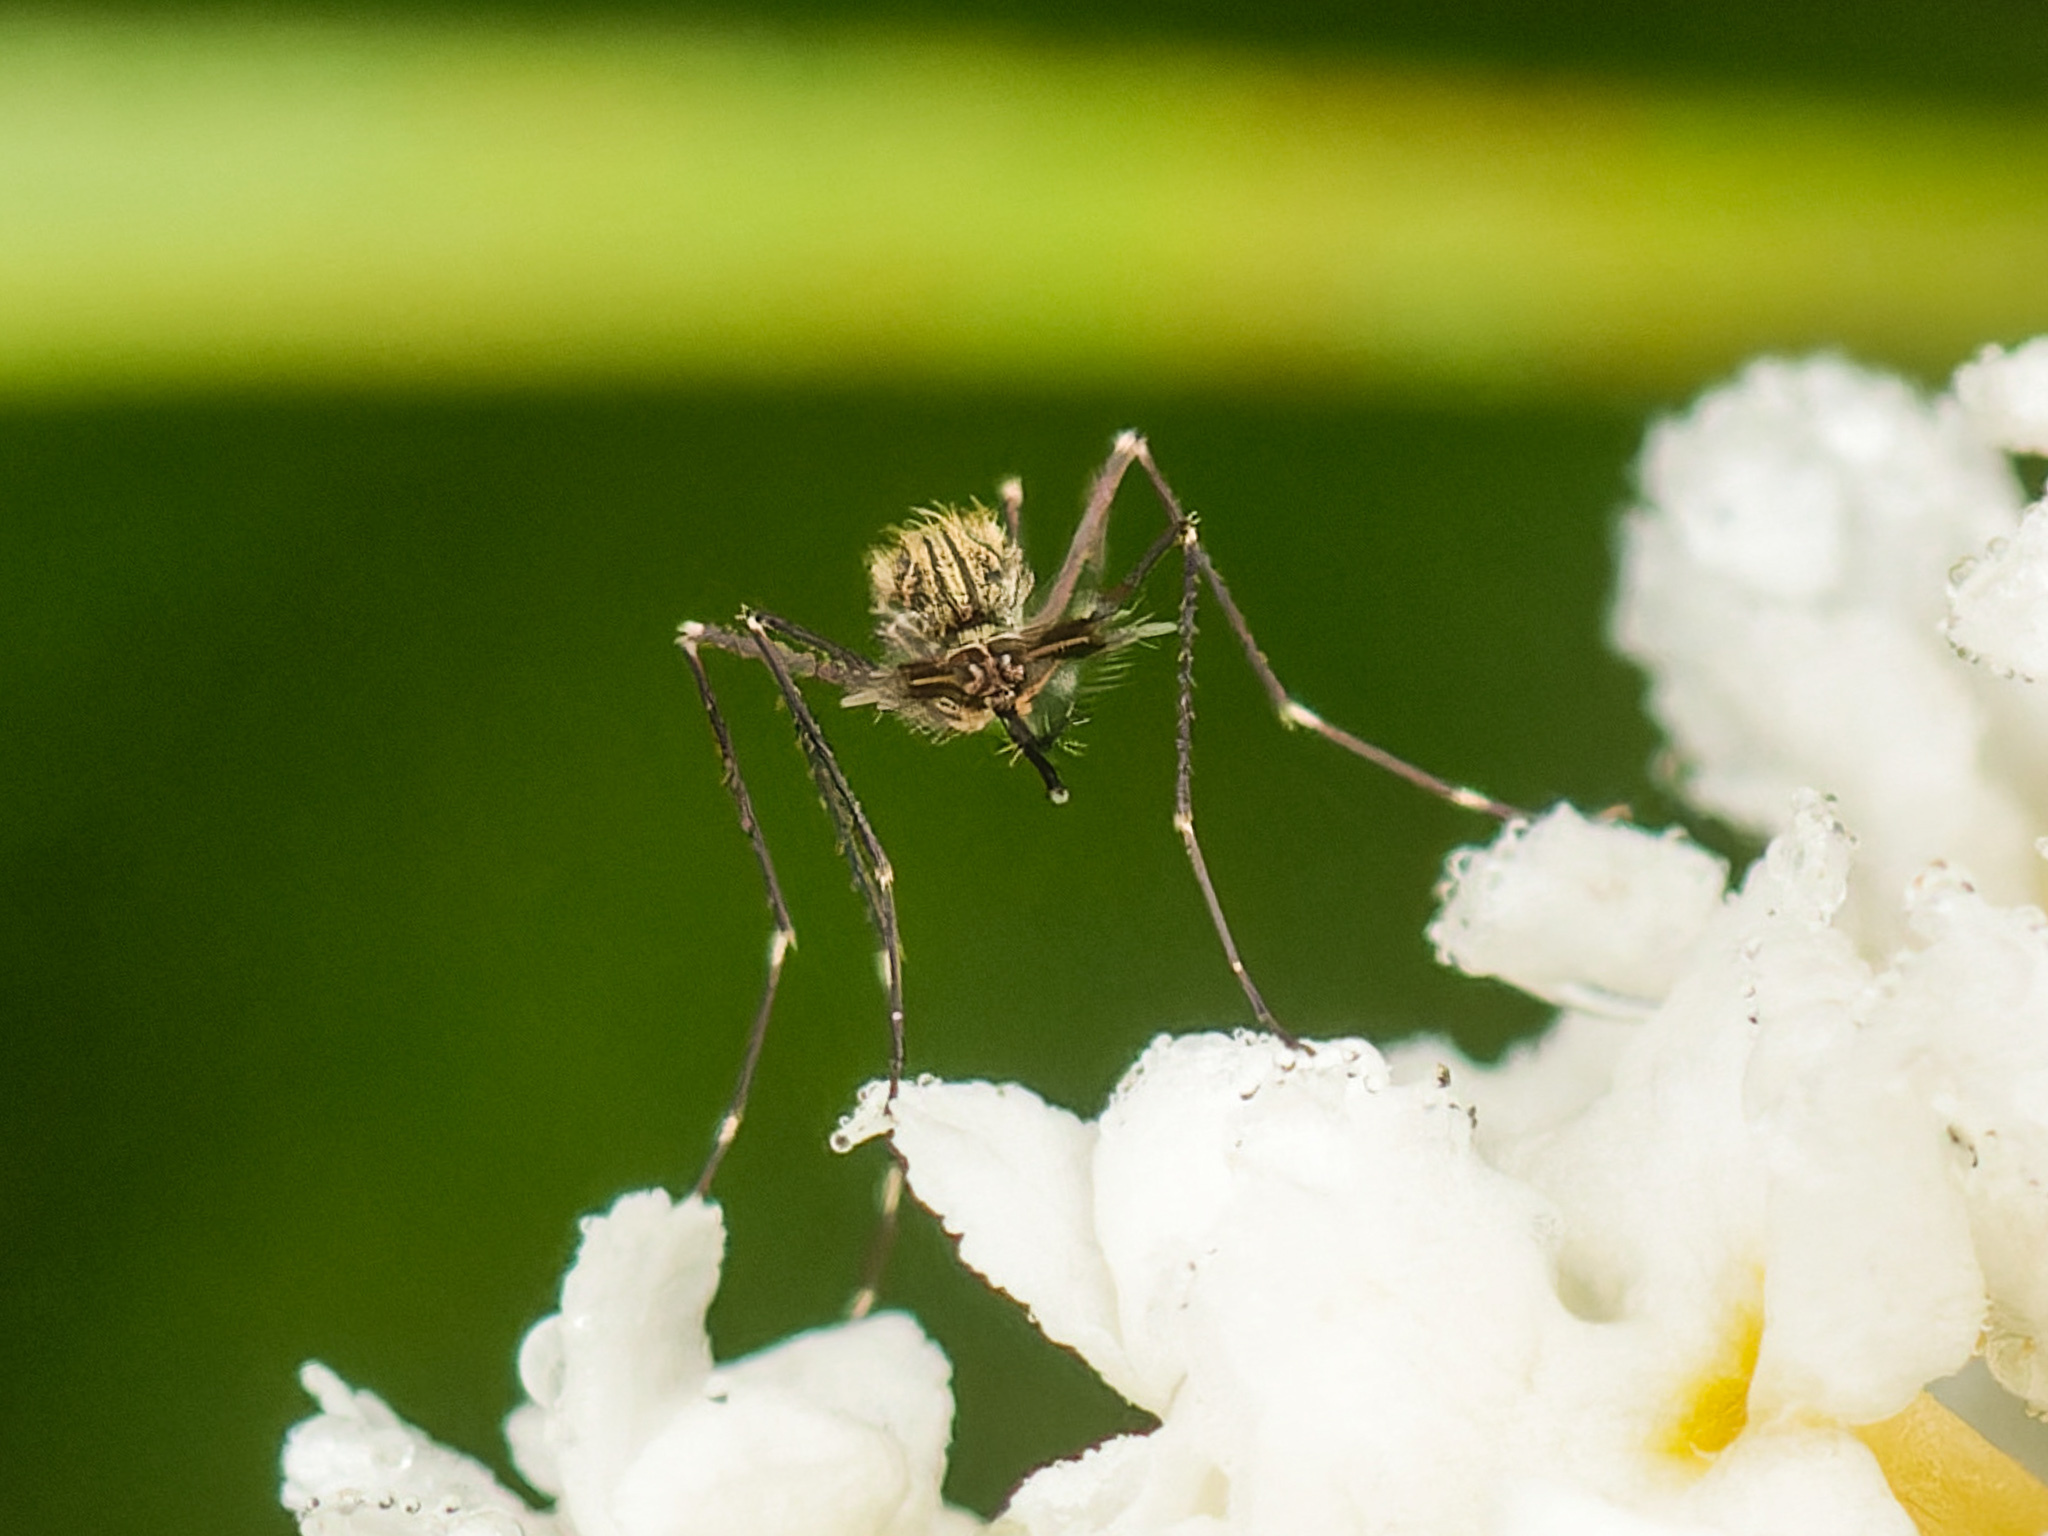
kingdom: Animalia
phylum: Arthropoda
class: Insecta
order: Diptera
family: Culicidae
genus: Aedes
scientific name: Aedes japonicus
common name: Asian bush mosquito
